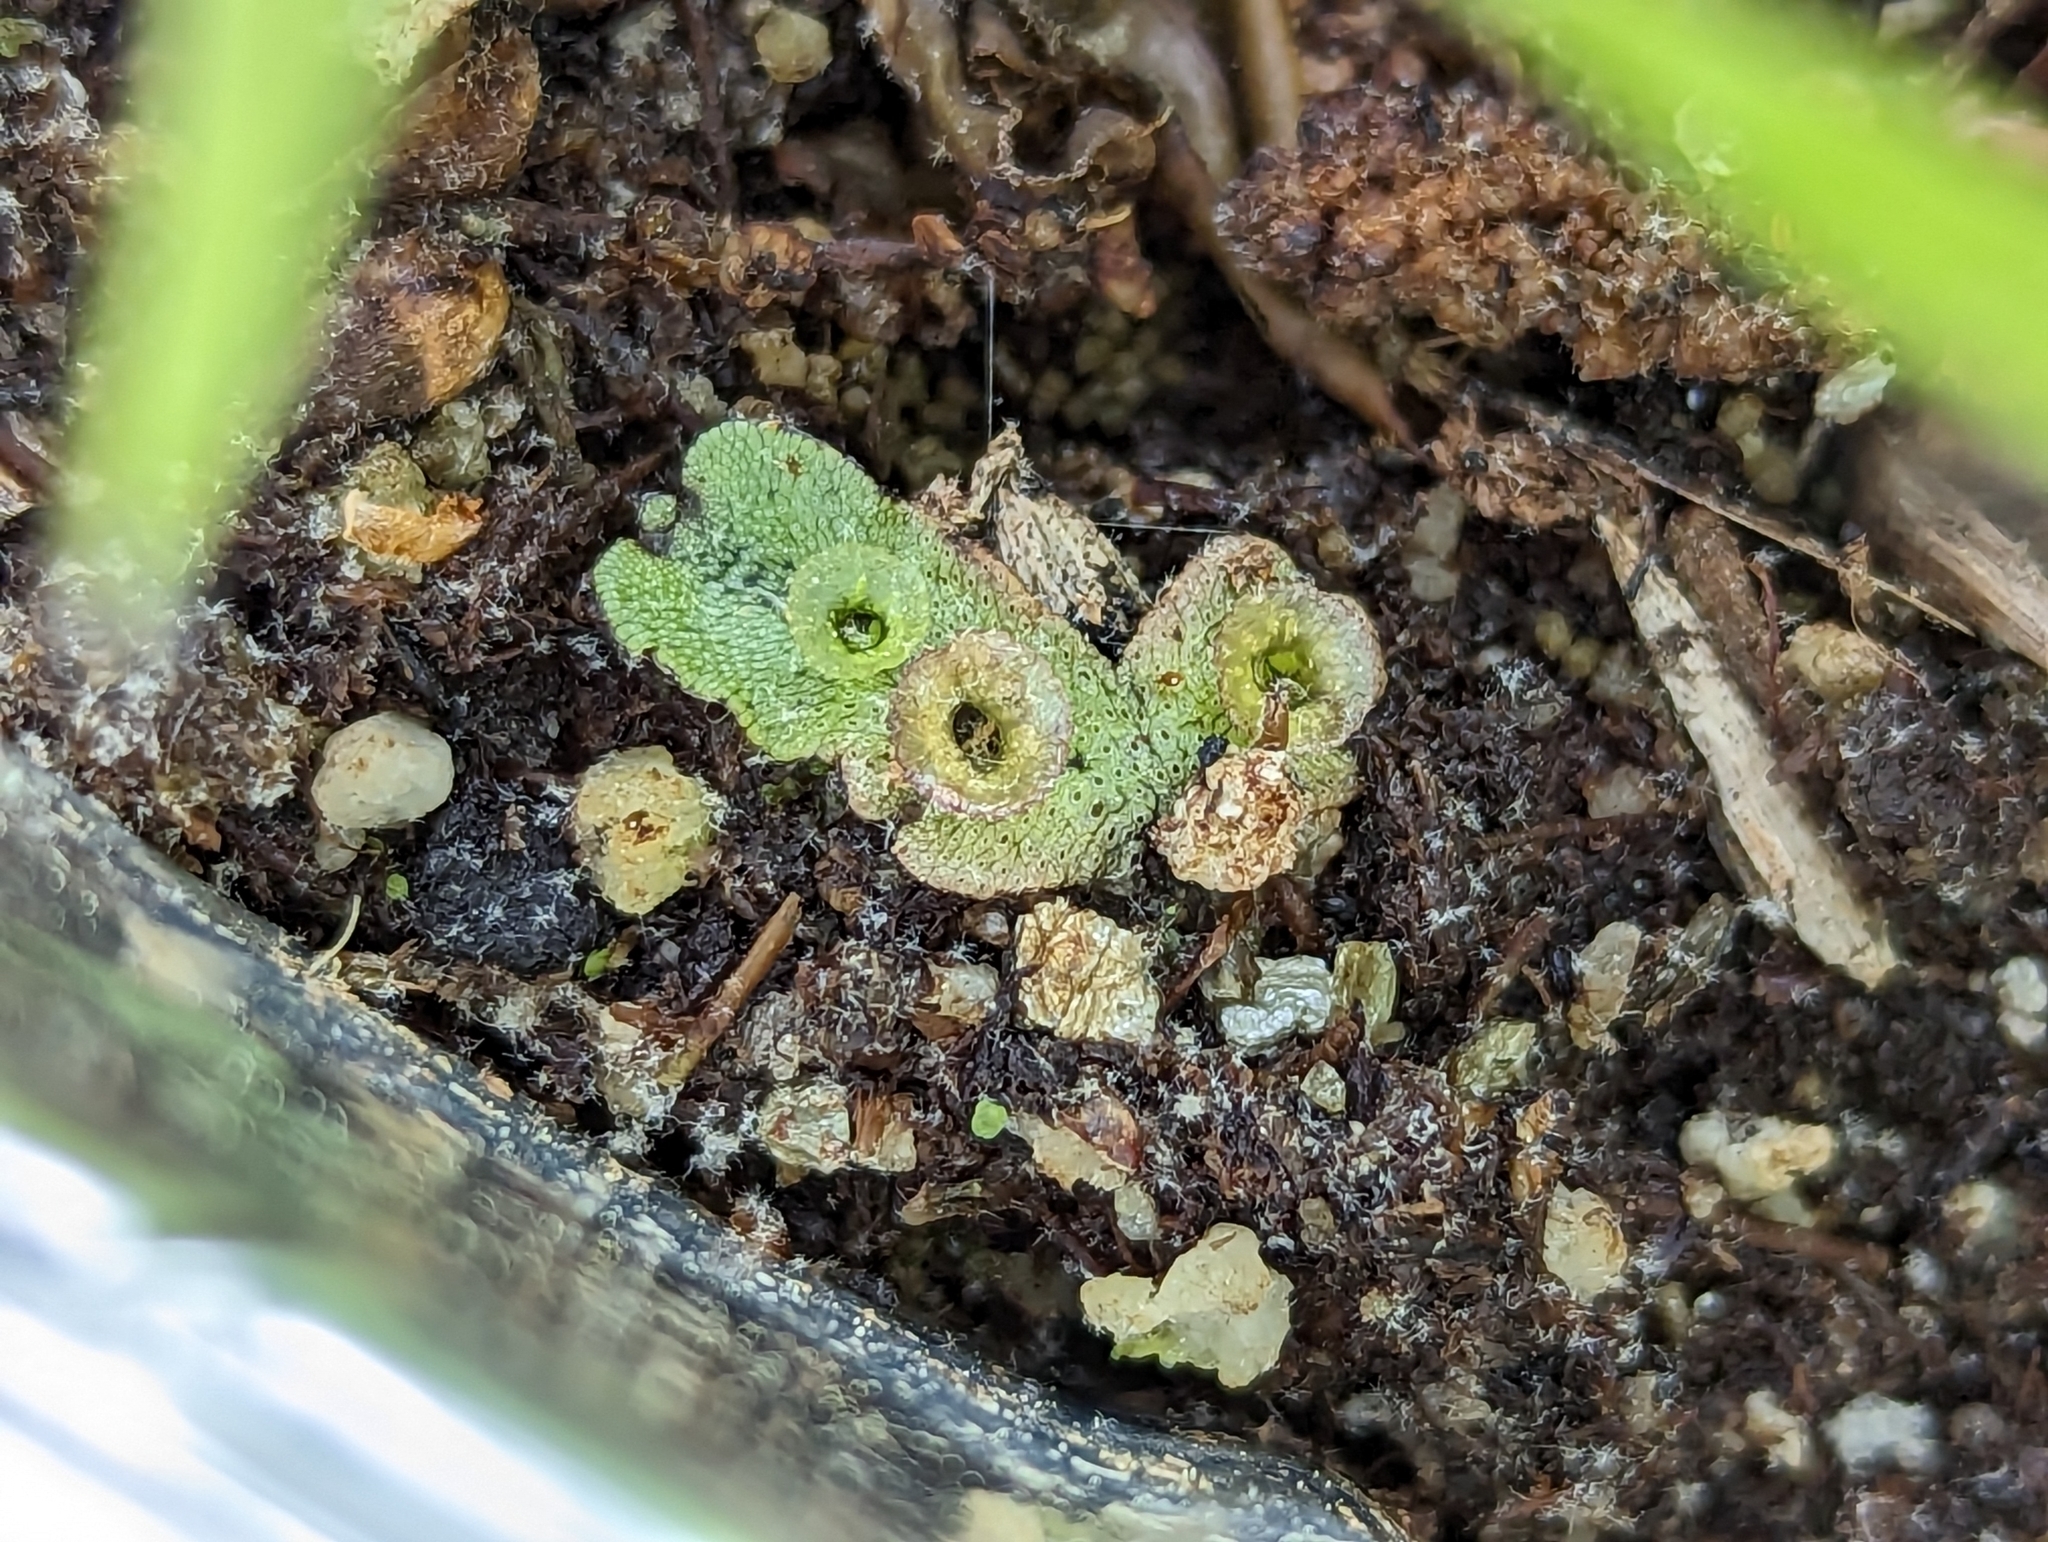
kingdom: Plantae
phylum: Marchantiophyta
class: Marchantiopsida
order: Marchantiales
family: Marchantiaceae
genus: Marchantia
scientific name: Marchantia polymorpha
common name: Common liverwort
